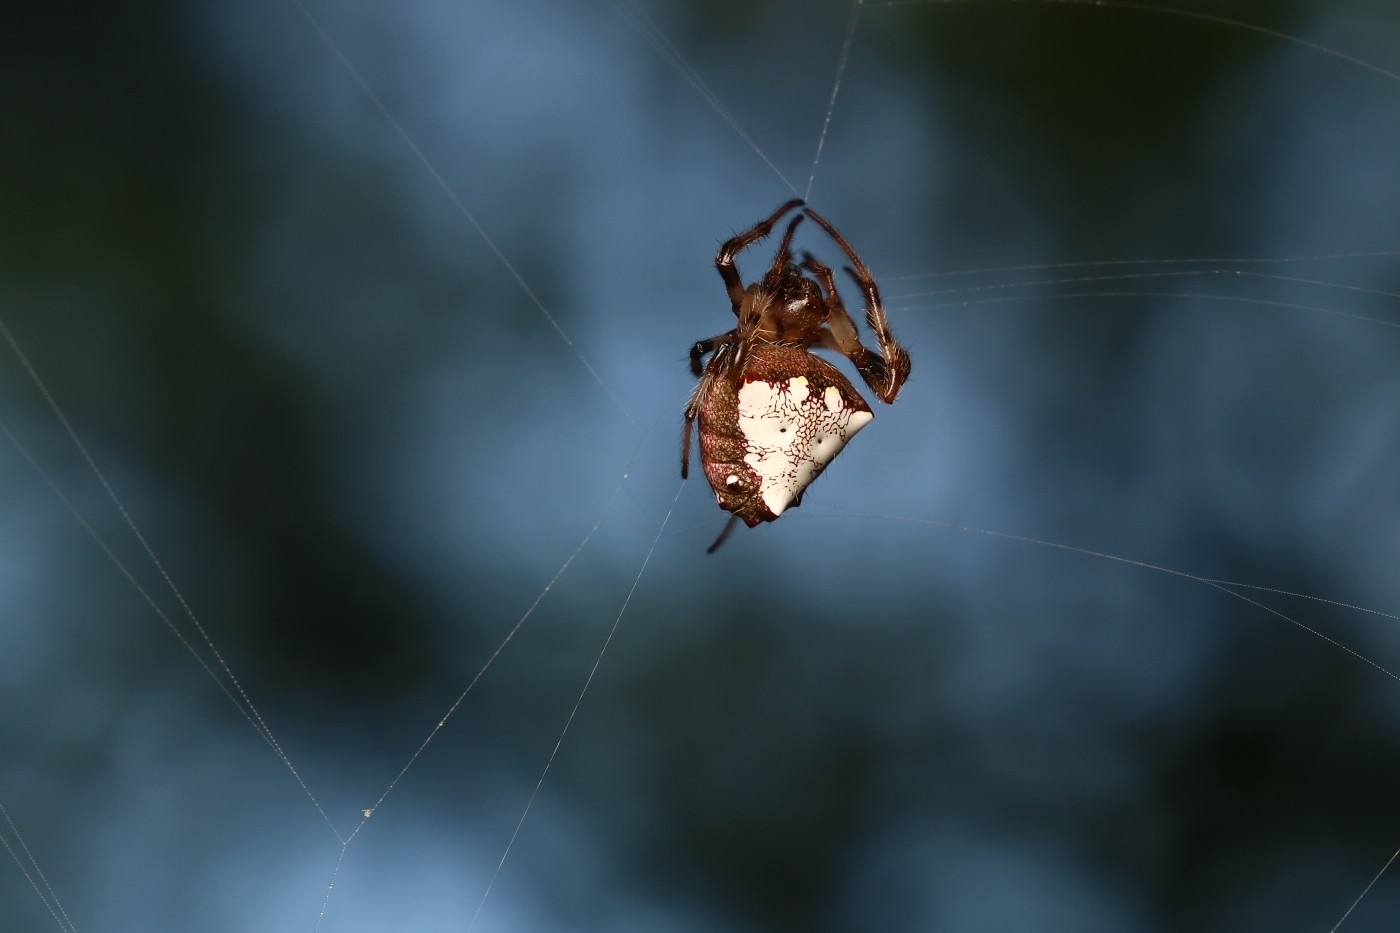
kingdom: Animalia
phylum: Arthropoda
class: Arachnida
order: Araneae
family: Araneidae
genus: Verrucosa
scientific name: Verrucosa arenata
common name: Orb weavers
